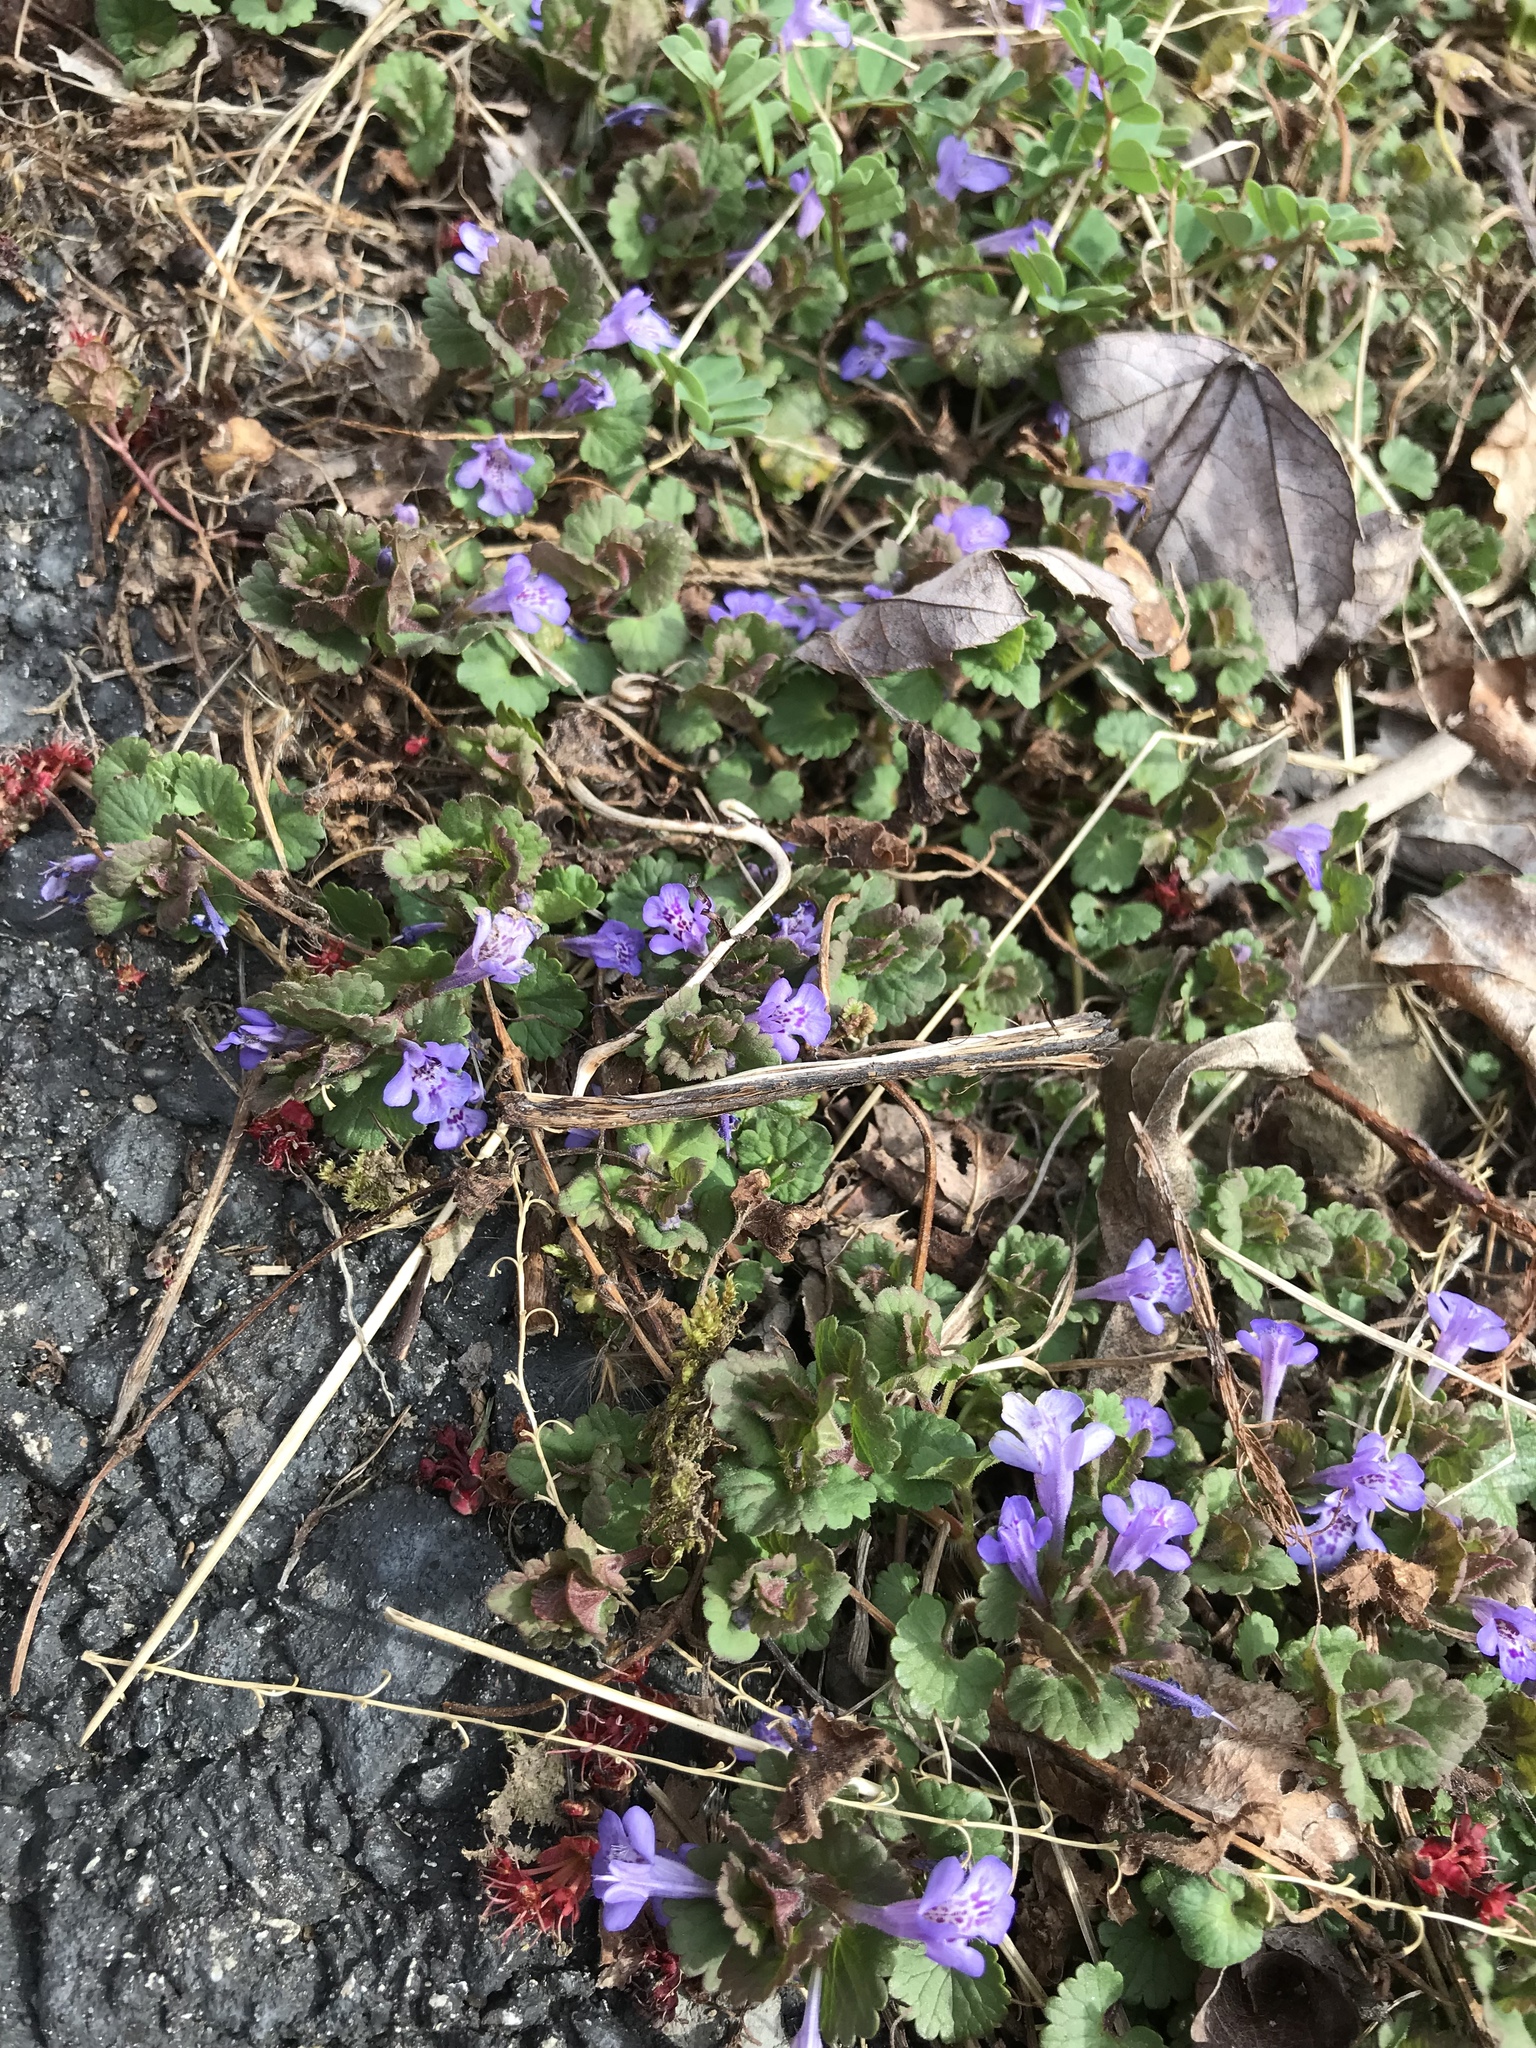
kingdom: Plantae
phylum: Tracheophyta
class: Magnoliopsida
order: Lamiales
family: Lamiaceae
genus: Glechoma
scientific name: Glechoma hederacea
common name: Ground ivy
